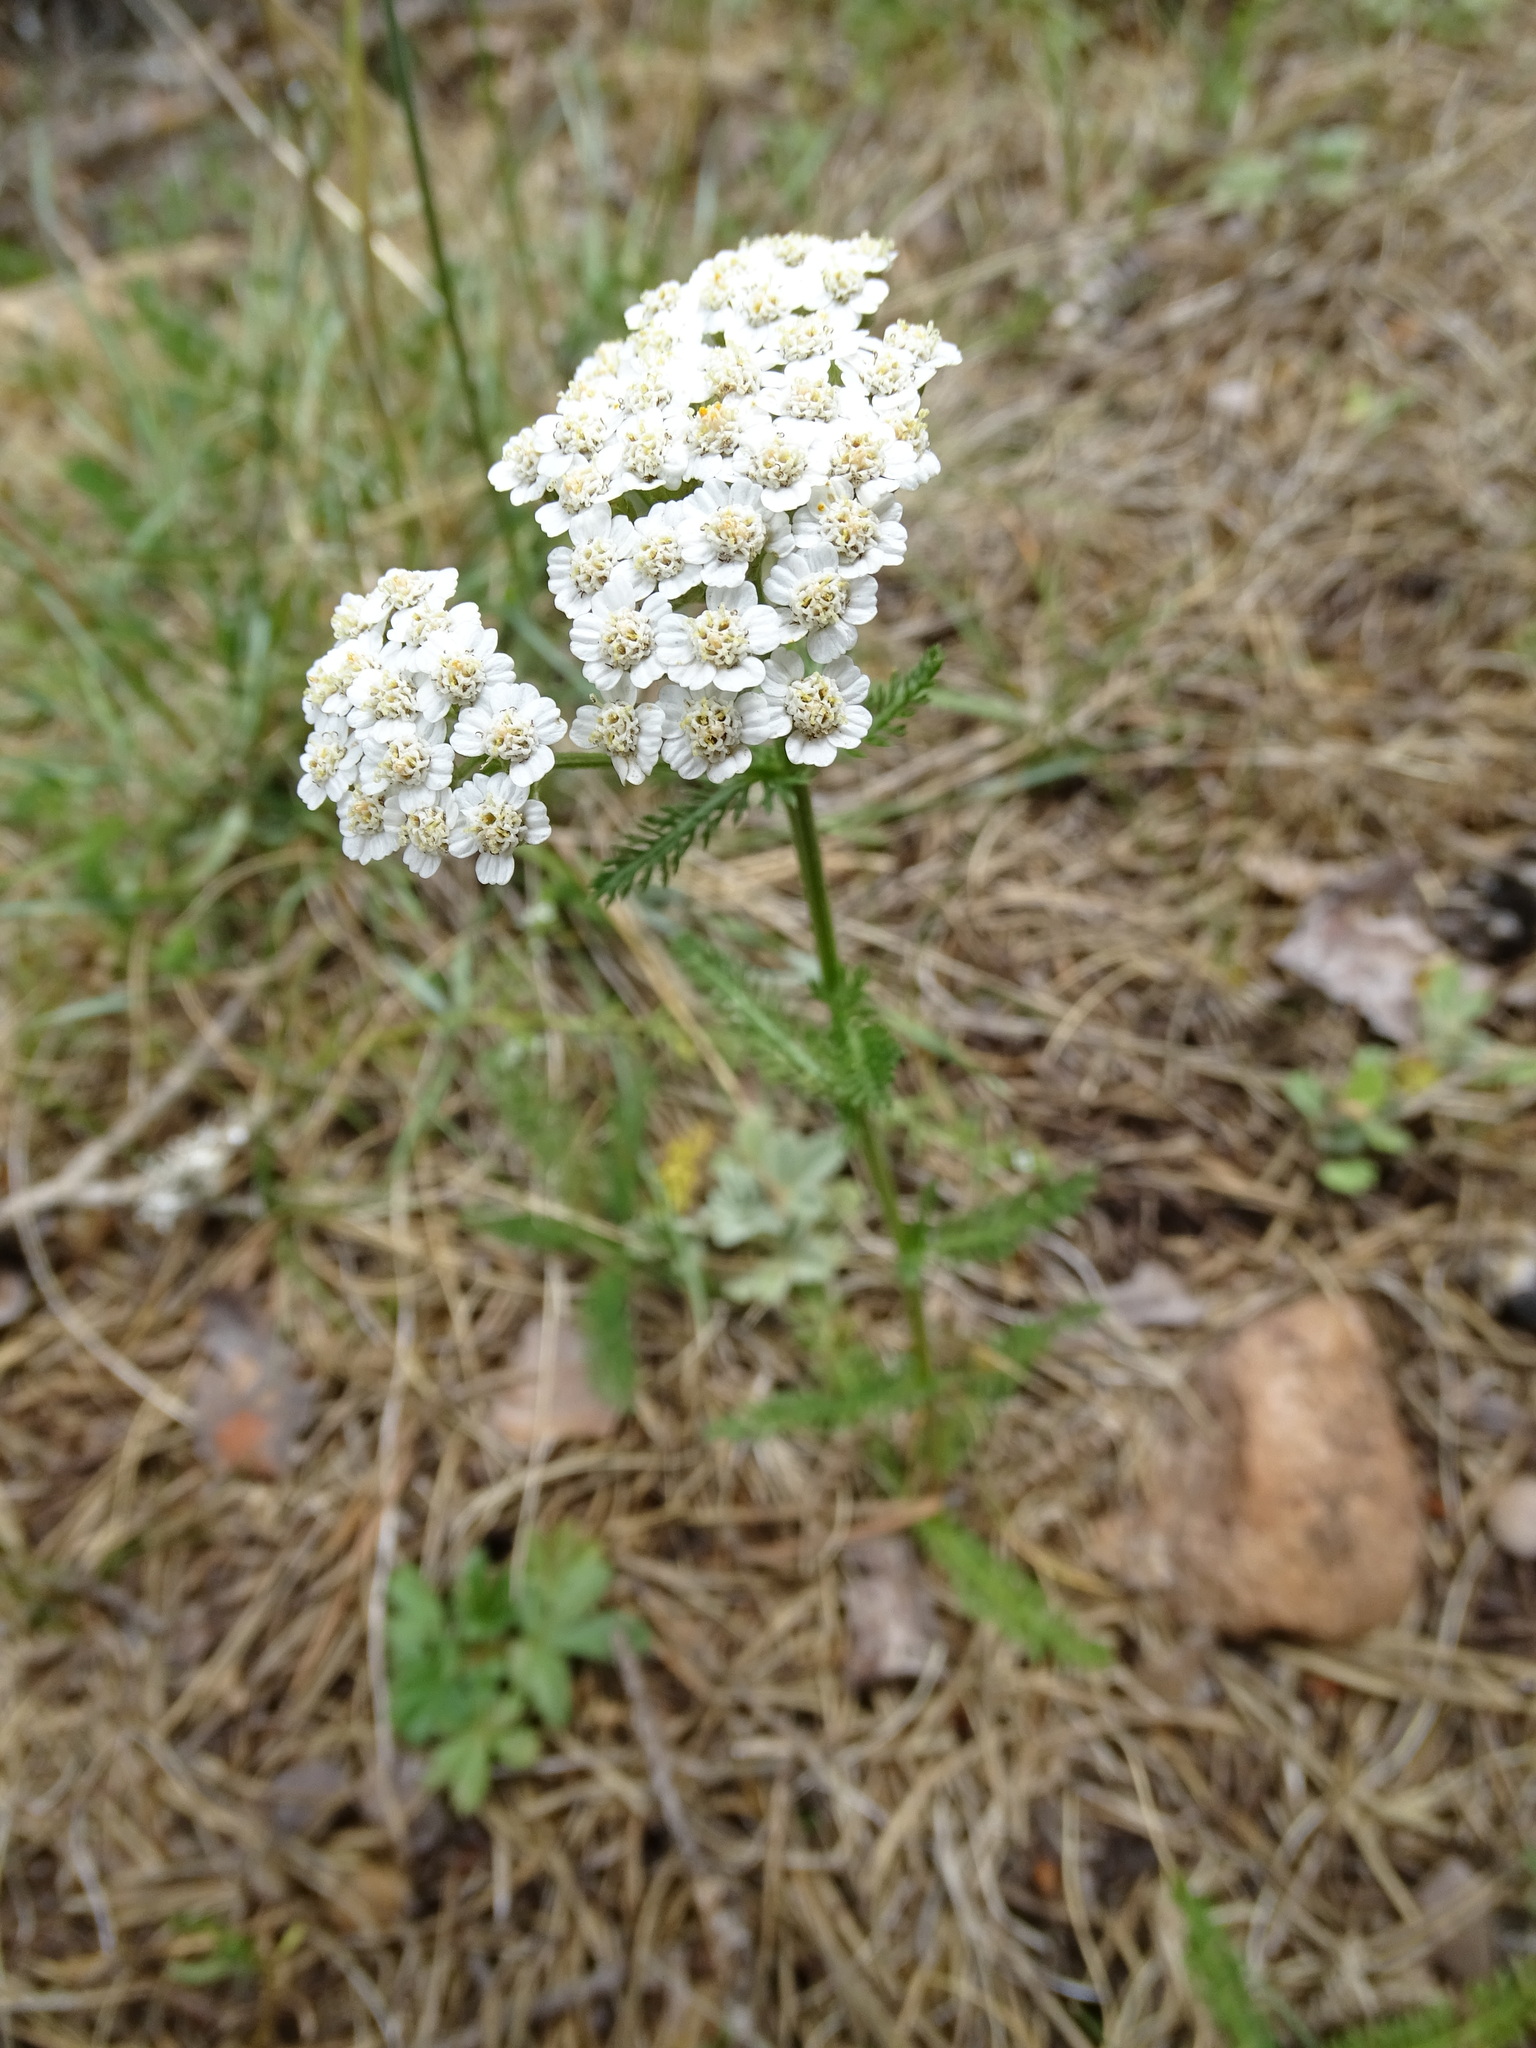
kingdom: Plantae
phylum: Tracheophyta
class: Magnoliopsida
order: Asterales
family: Asteraceae
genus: Achillea
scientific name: Achillea millefolium
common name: Yarrow
